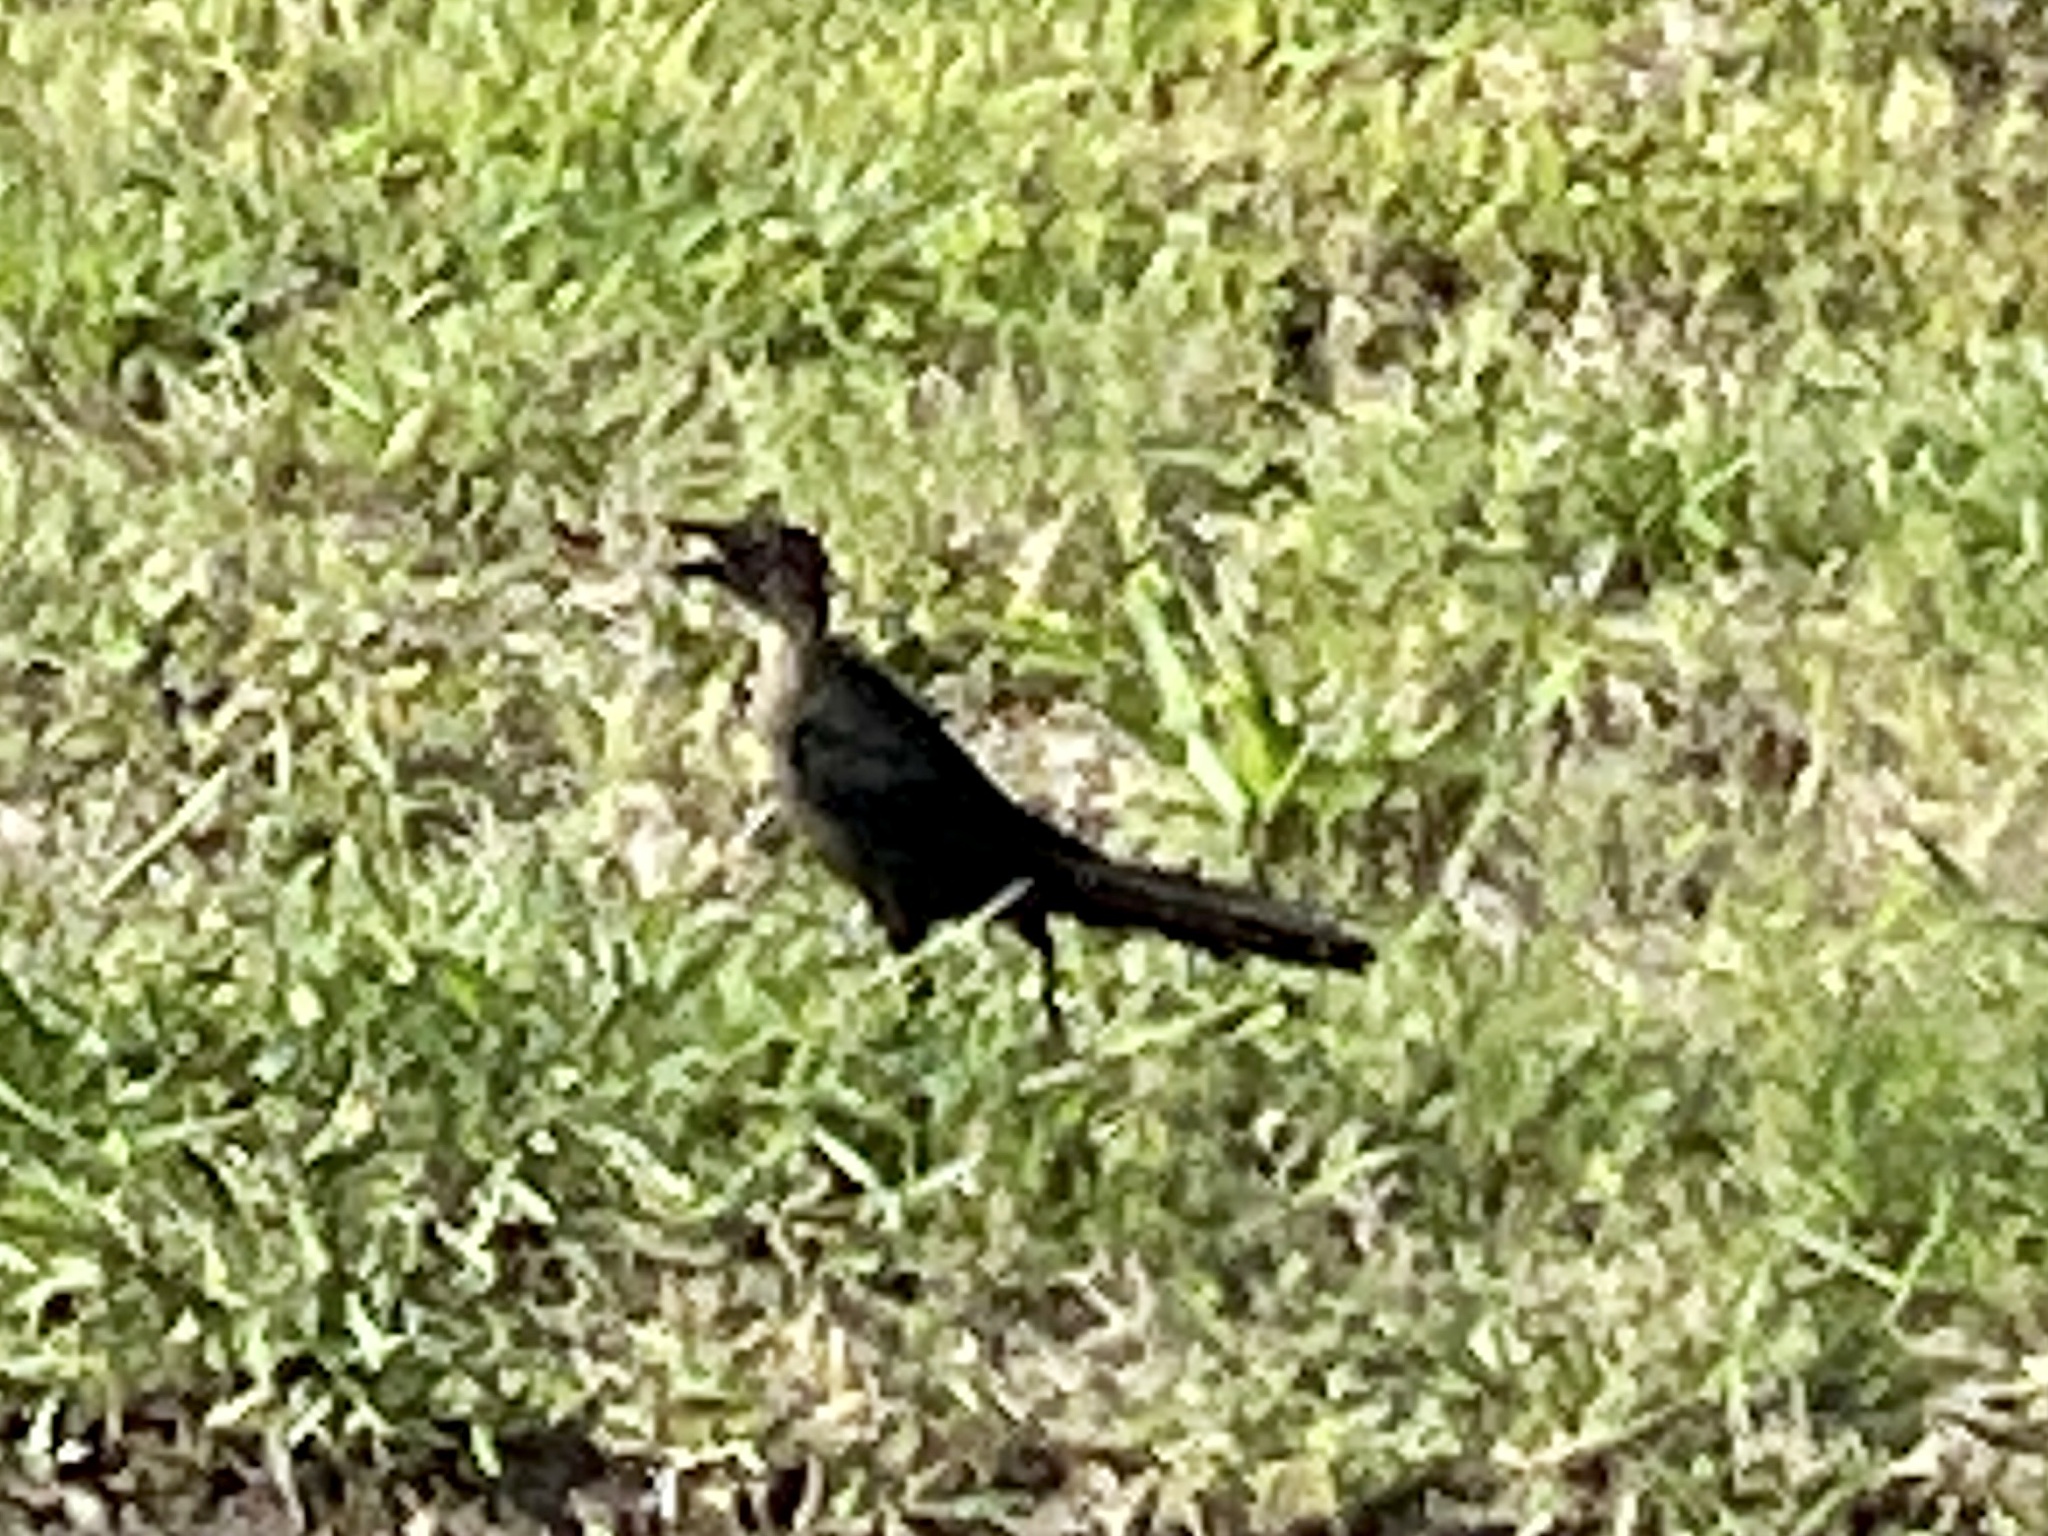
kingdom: Animalia
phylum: Chordata
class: Aves
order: Passeriformes
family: Icteridae
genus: Quiscalus
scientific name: Quiscalus mexicanus
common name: Great-tailed grackle
